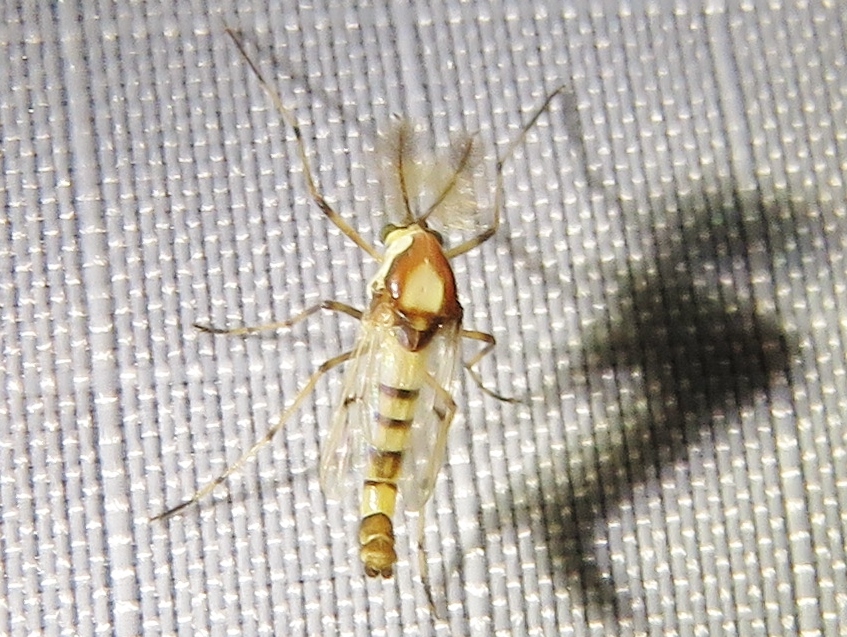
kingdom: Animalia
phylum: Arthropoda
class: Insecta
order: Diptera
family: Chironomidae
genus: Coelotanypus
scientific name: Coelotanypus tricolor
